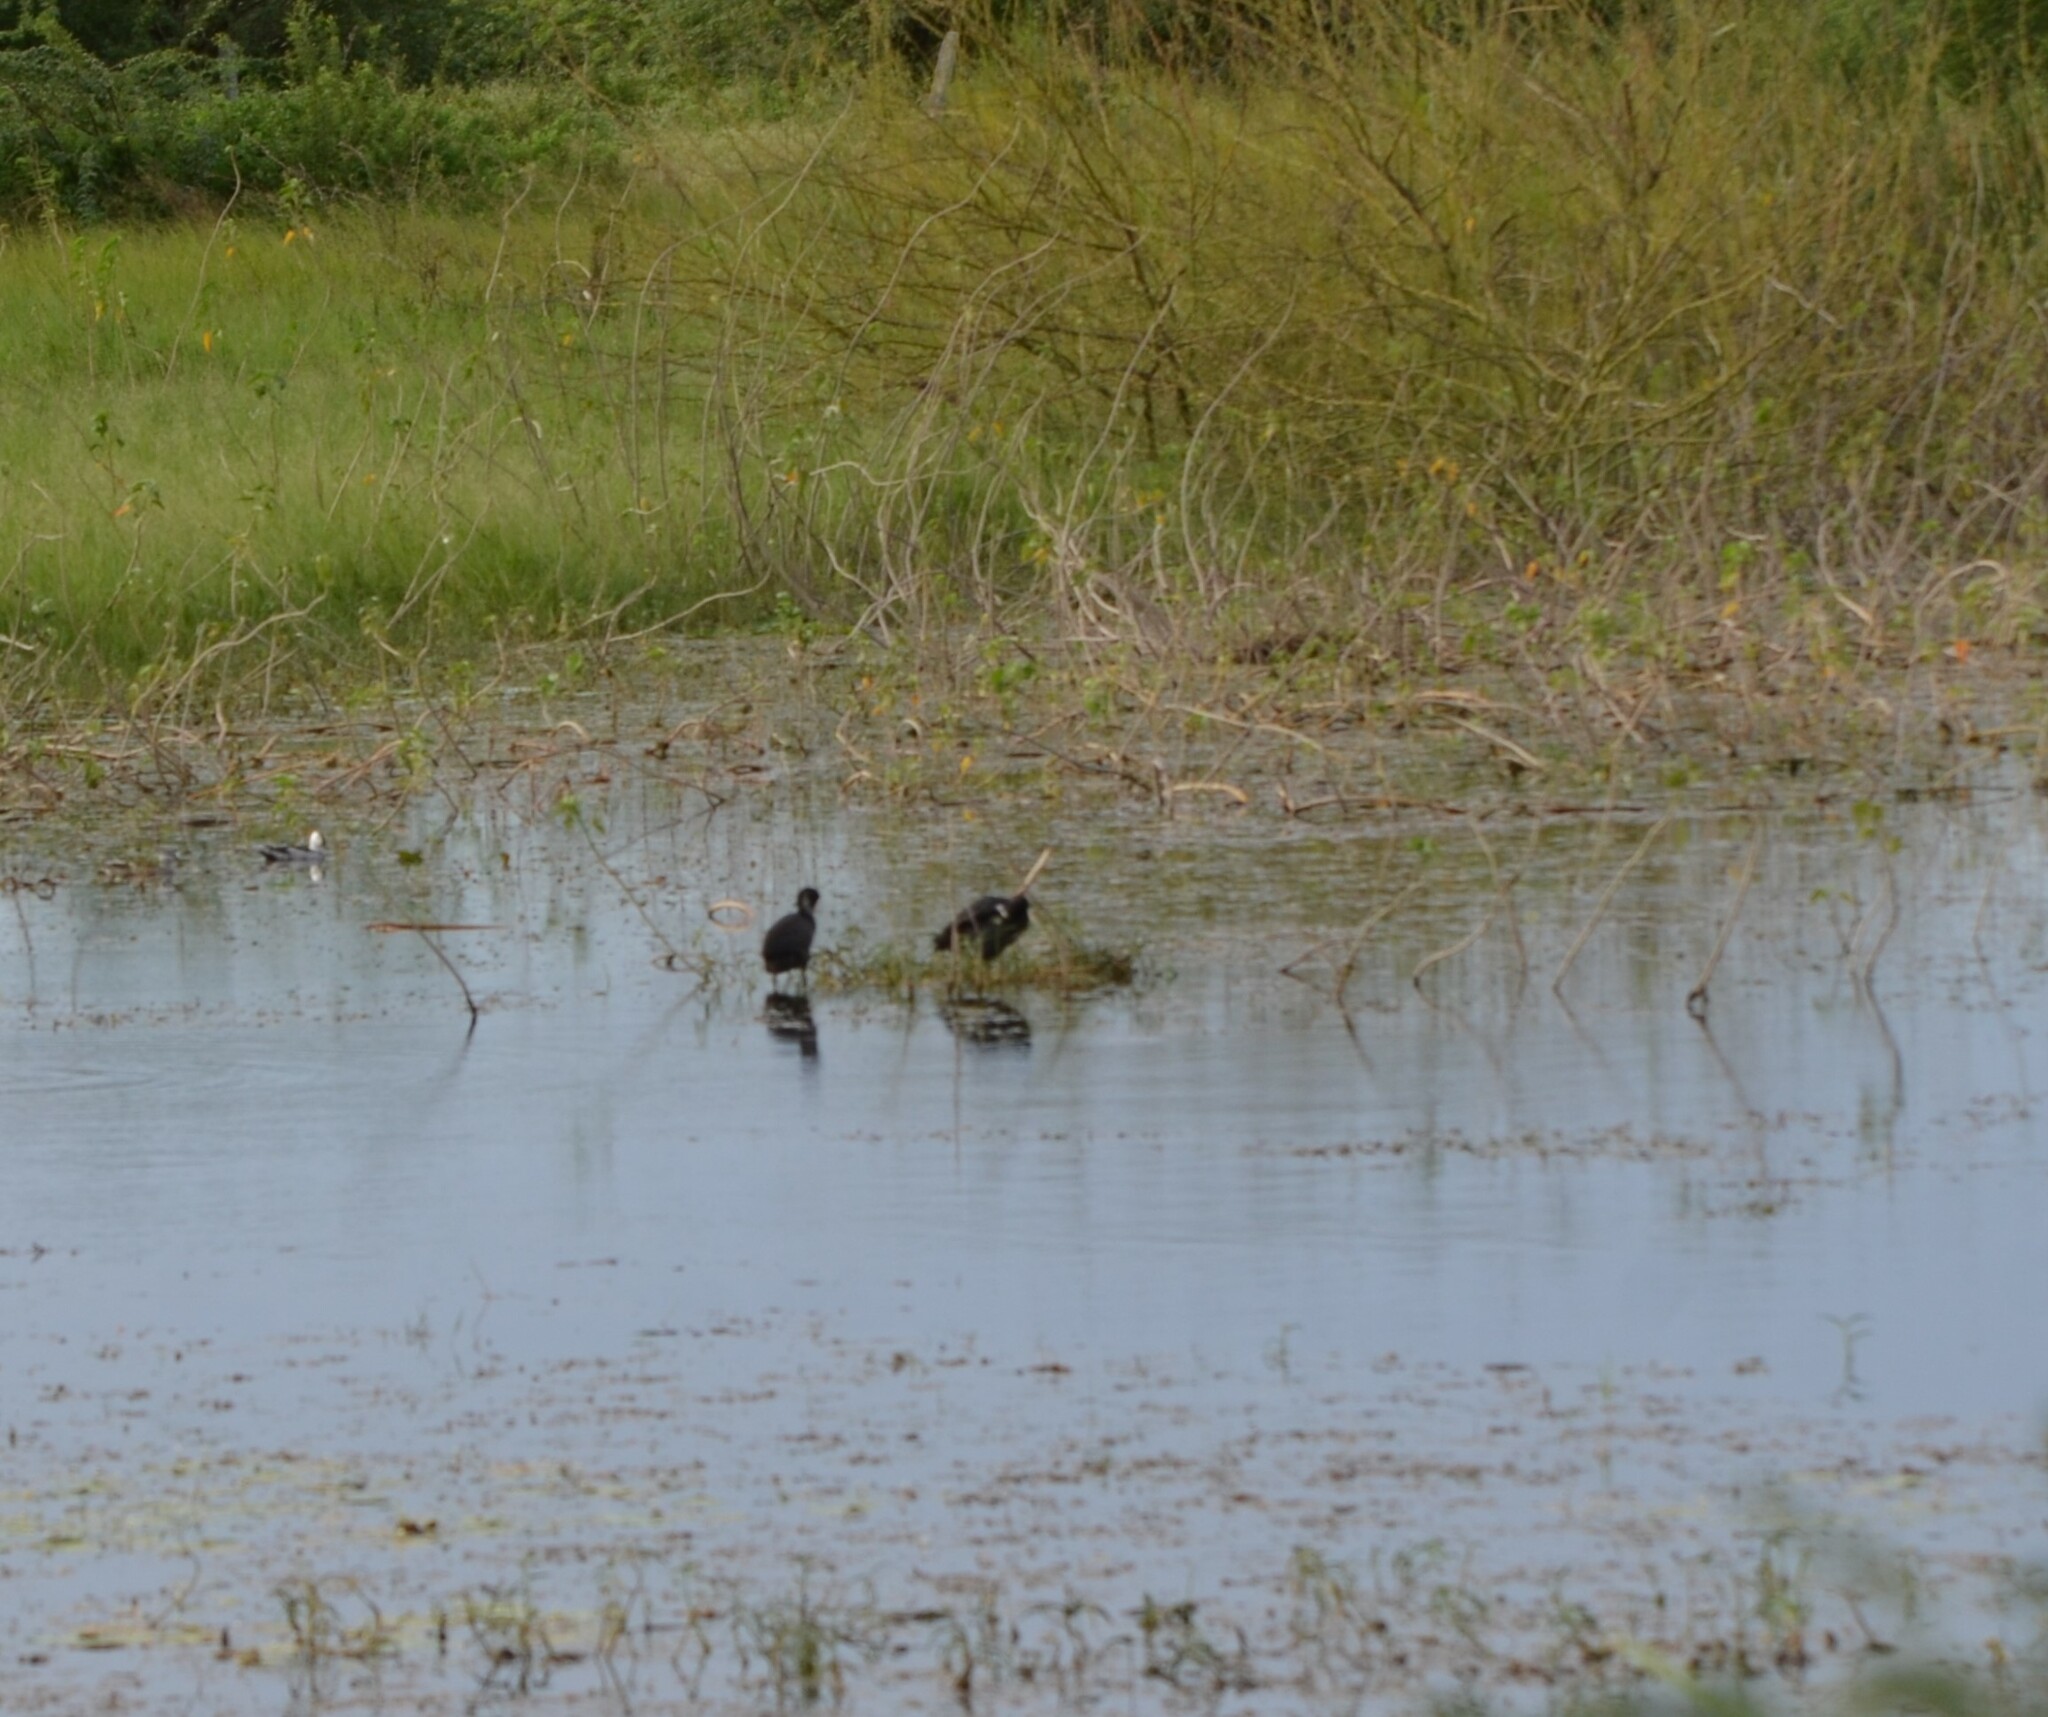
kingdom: Animalia
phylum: Chordata
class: Aves
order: Gruiformes
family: Rallidae
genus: Fulica
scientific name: Fulica atra
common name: Eurasian coot
